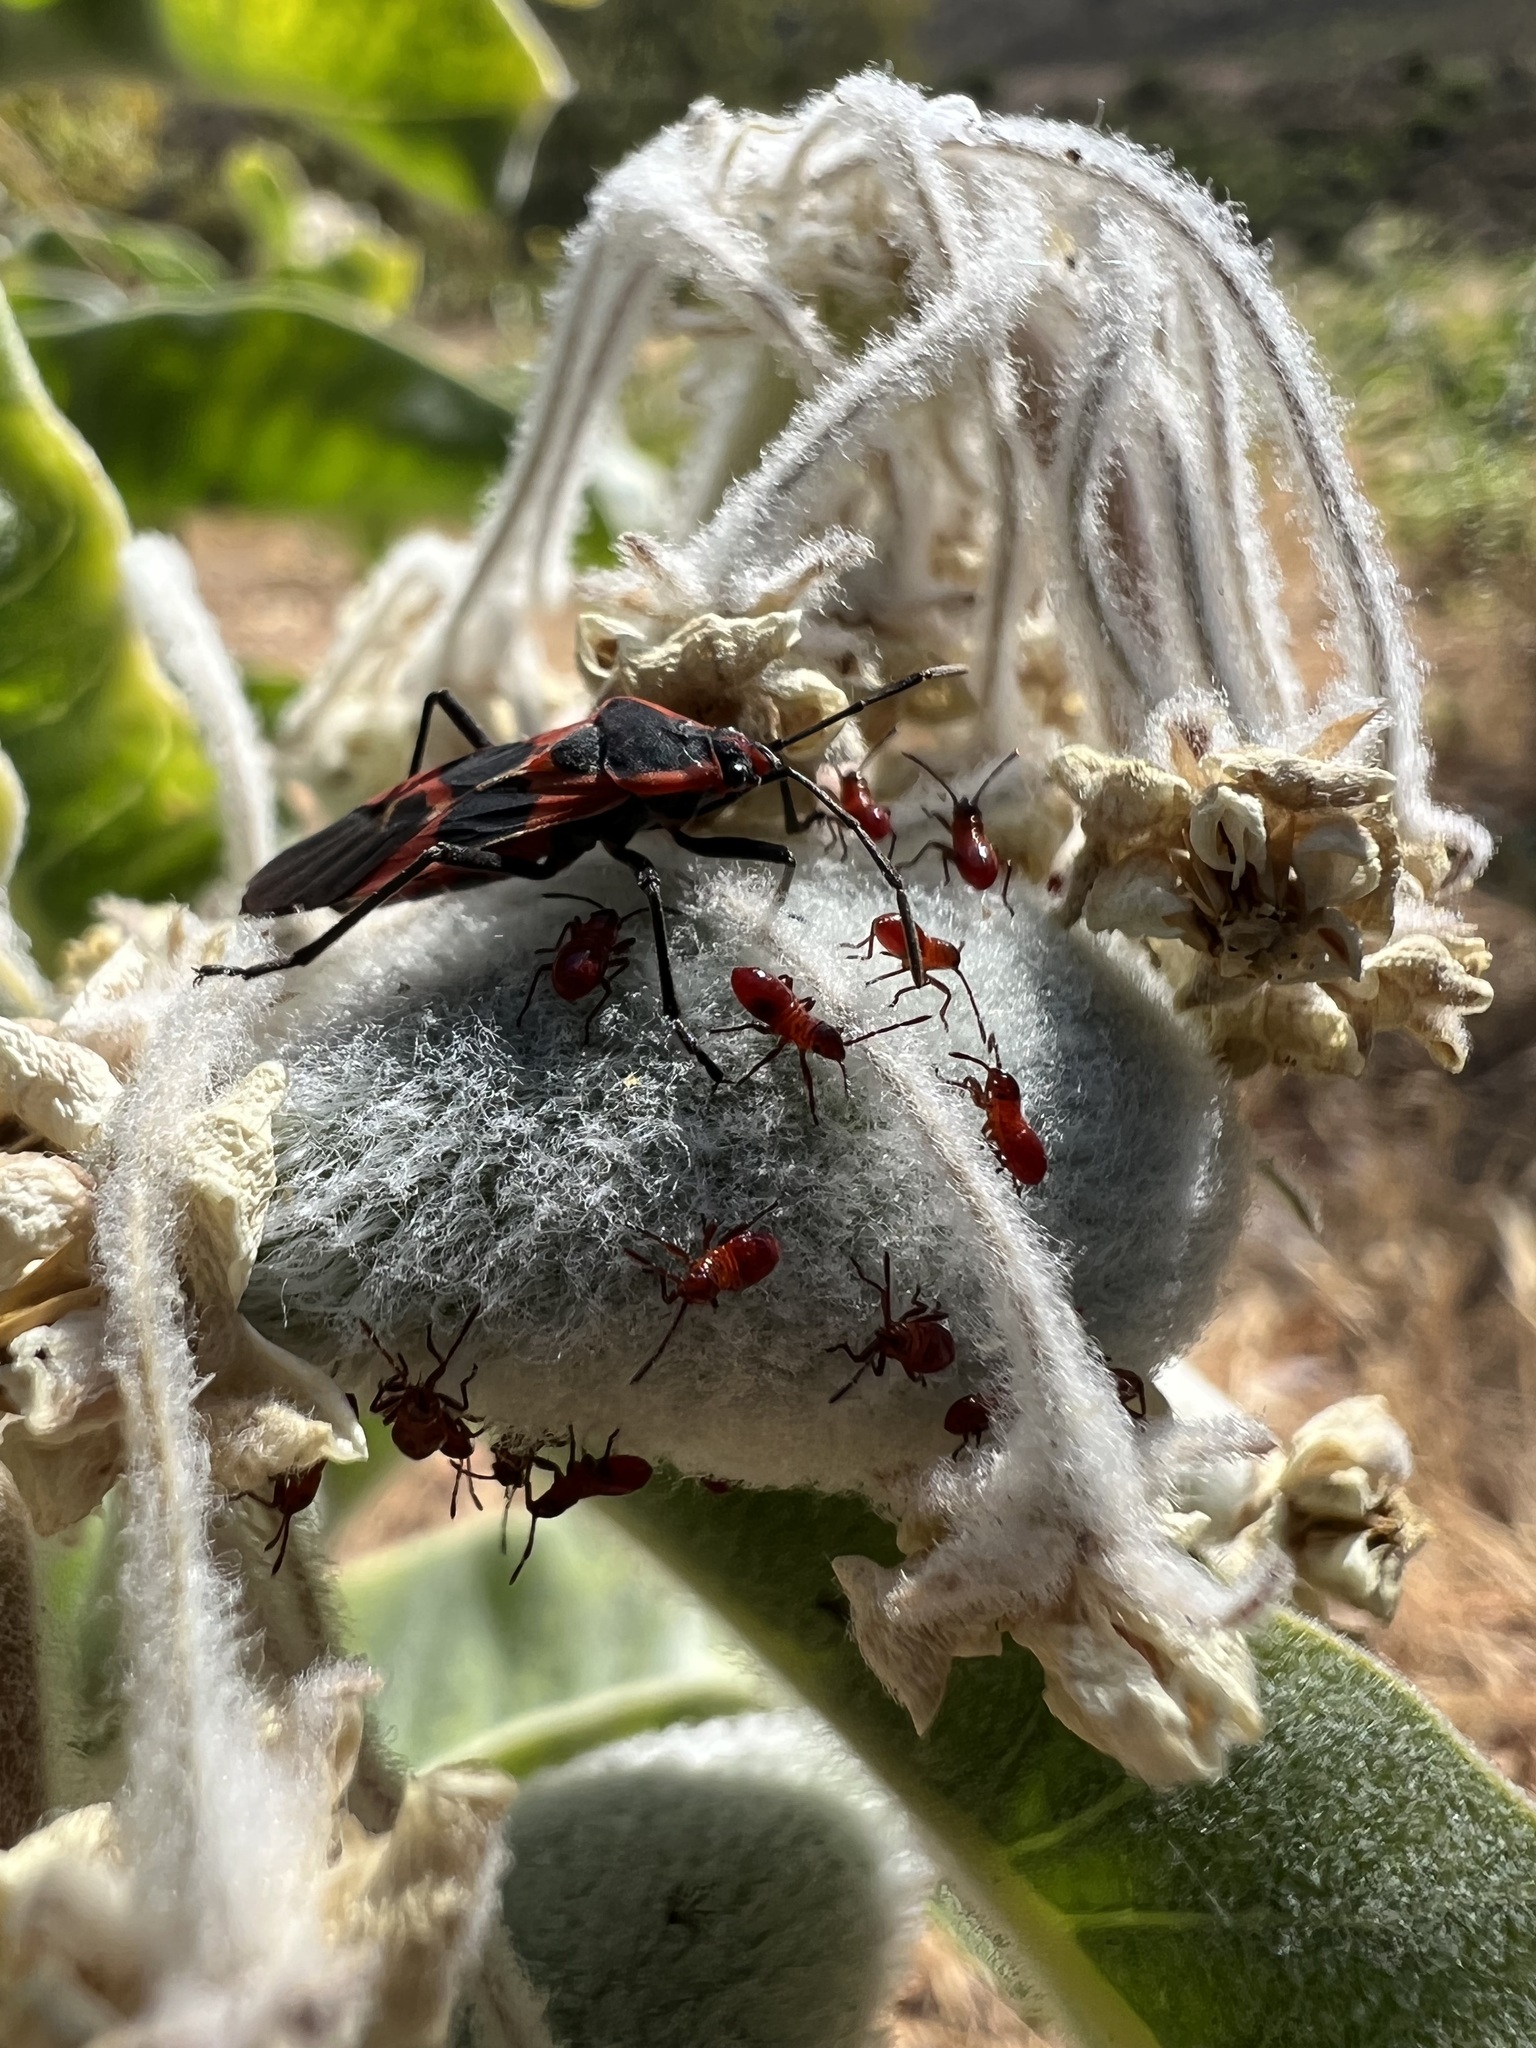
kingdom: Animalia
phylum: Arthropoda
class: Insecta
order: Hemiptera
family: Lygaeidae
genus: Oncopeltus
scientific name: Oncopeltus fasciatus
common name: Large milkweed bug
